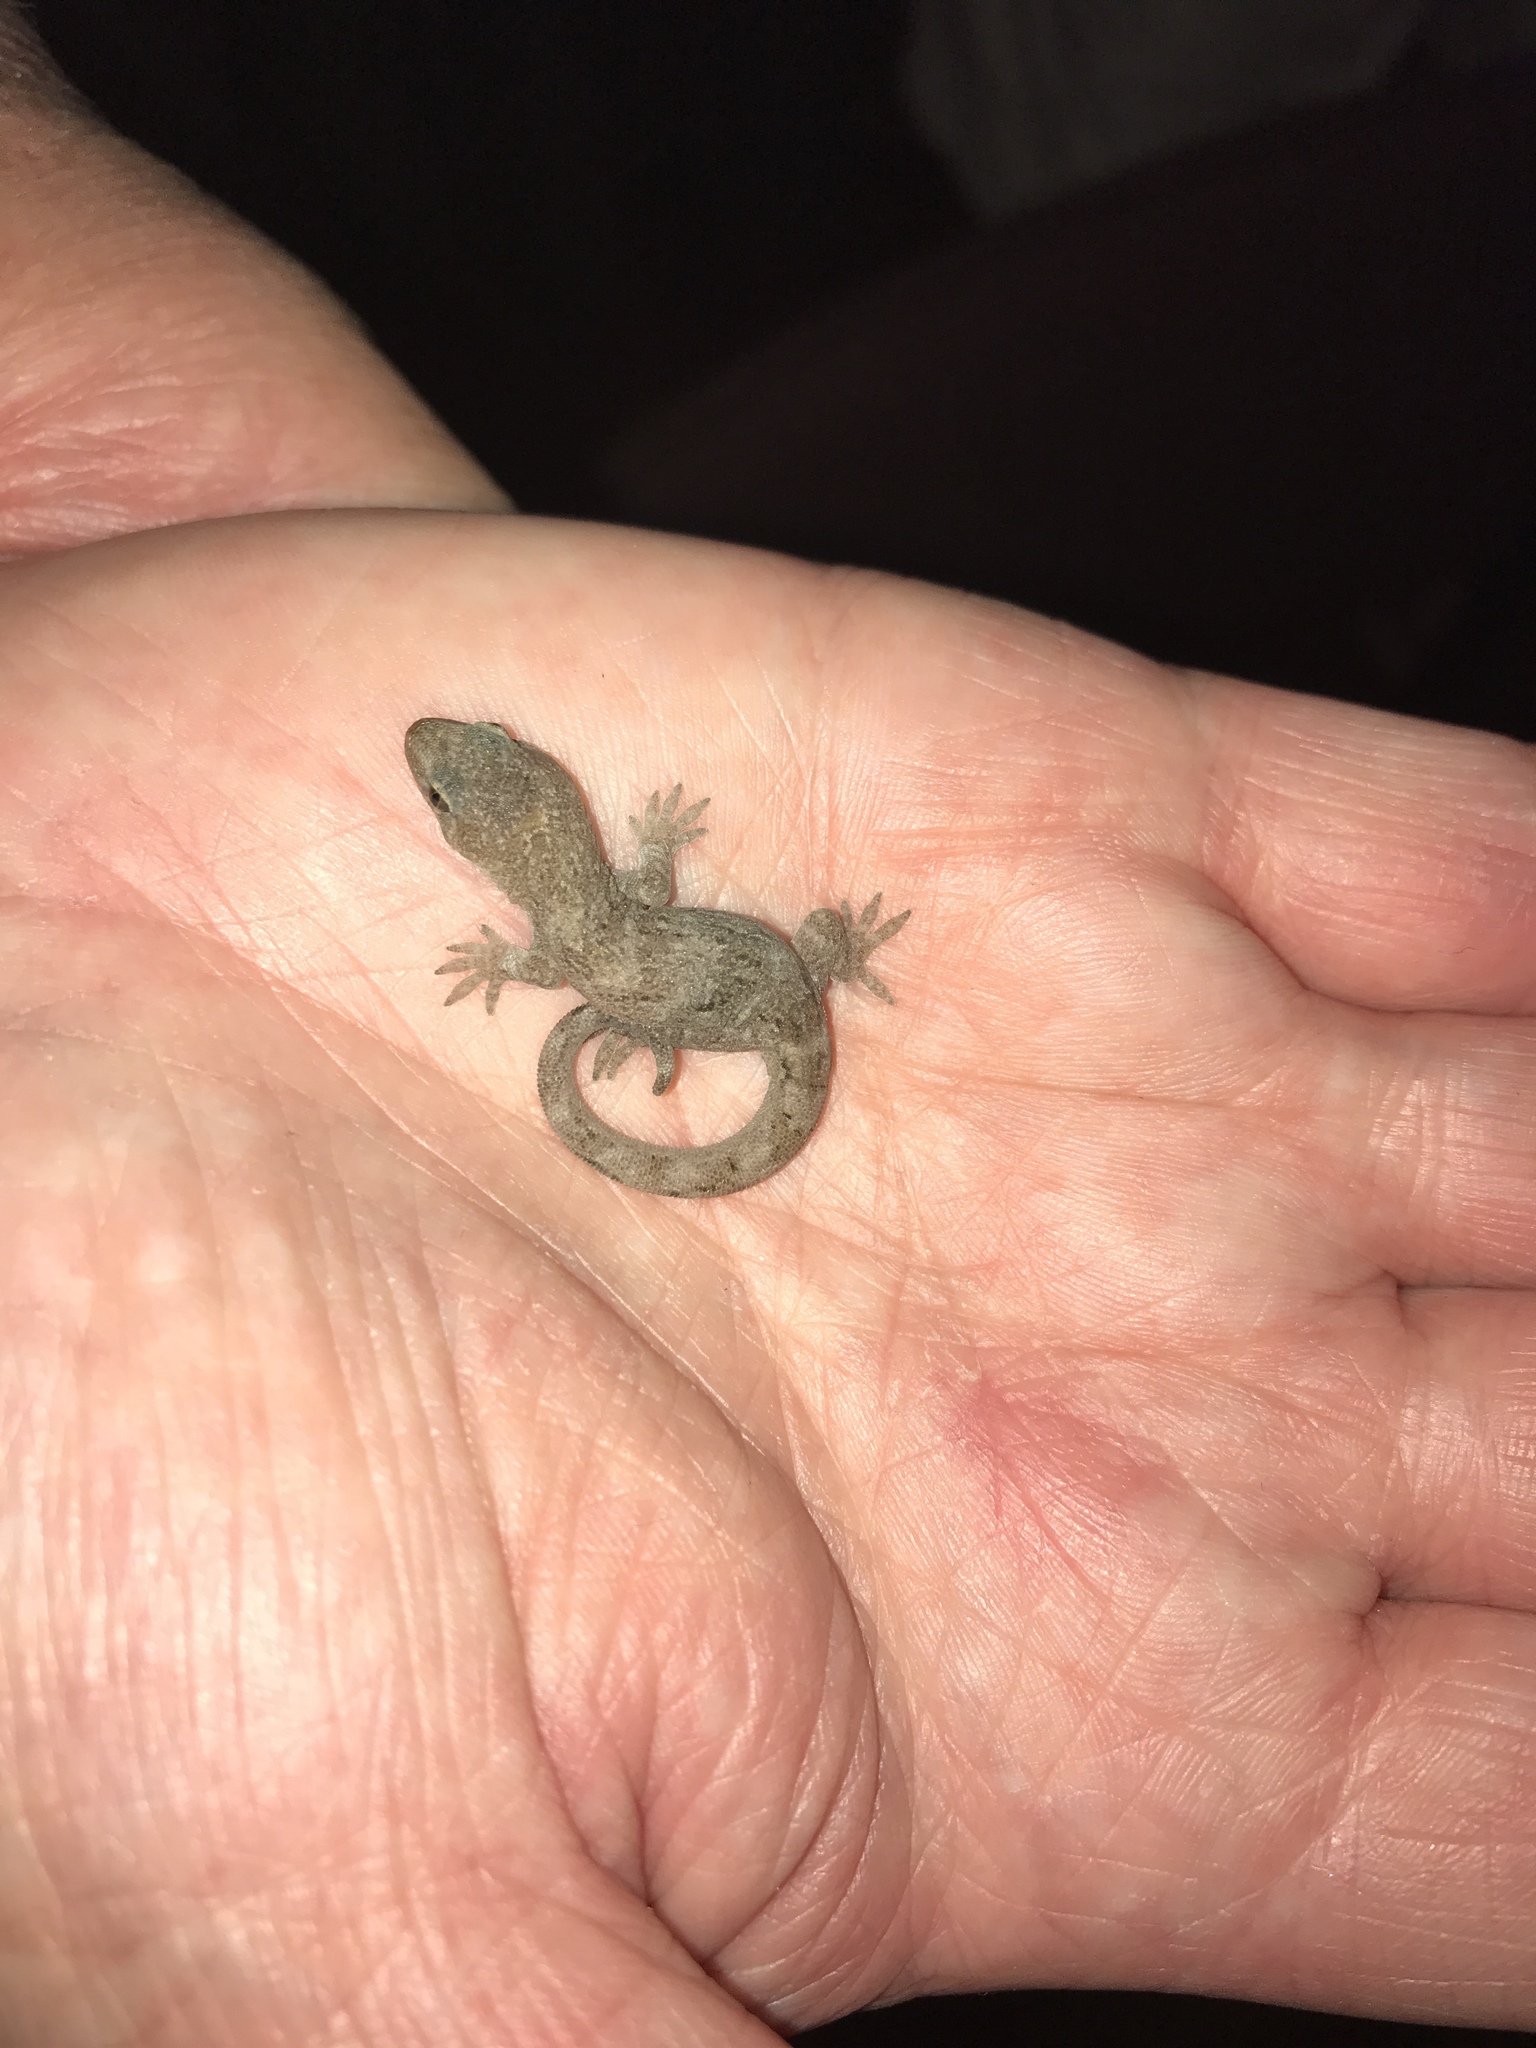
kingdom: Animalia
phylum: Chordata
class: Squamata
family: Diplodactylidae
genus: Woodworthia
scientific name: Woodworthia
